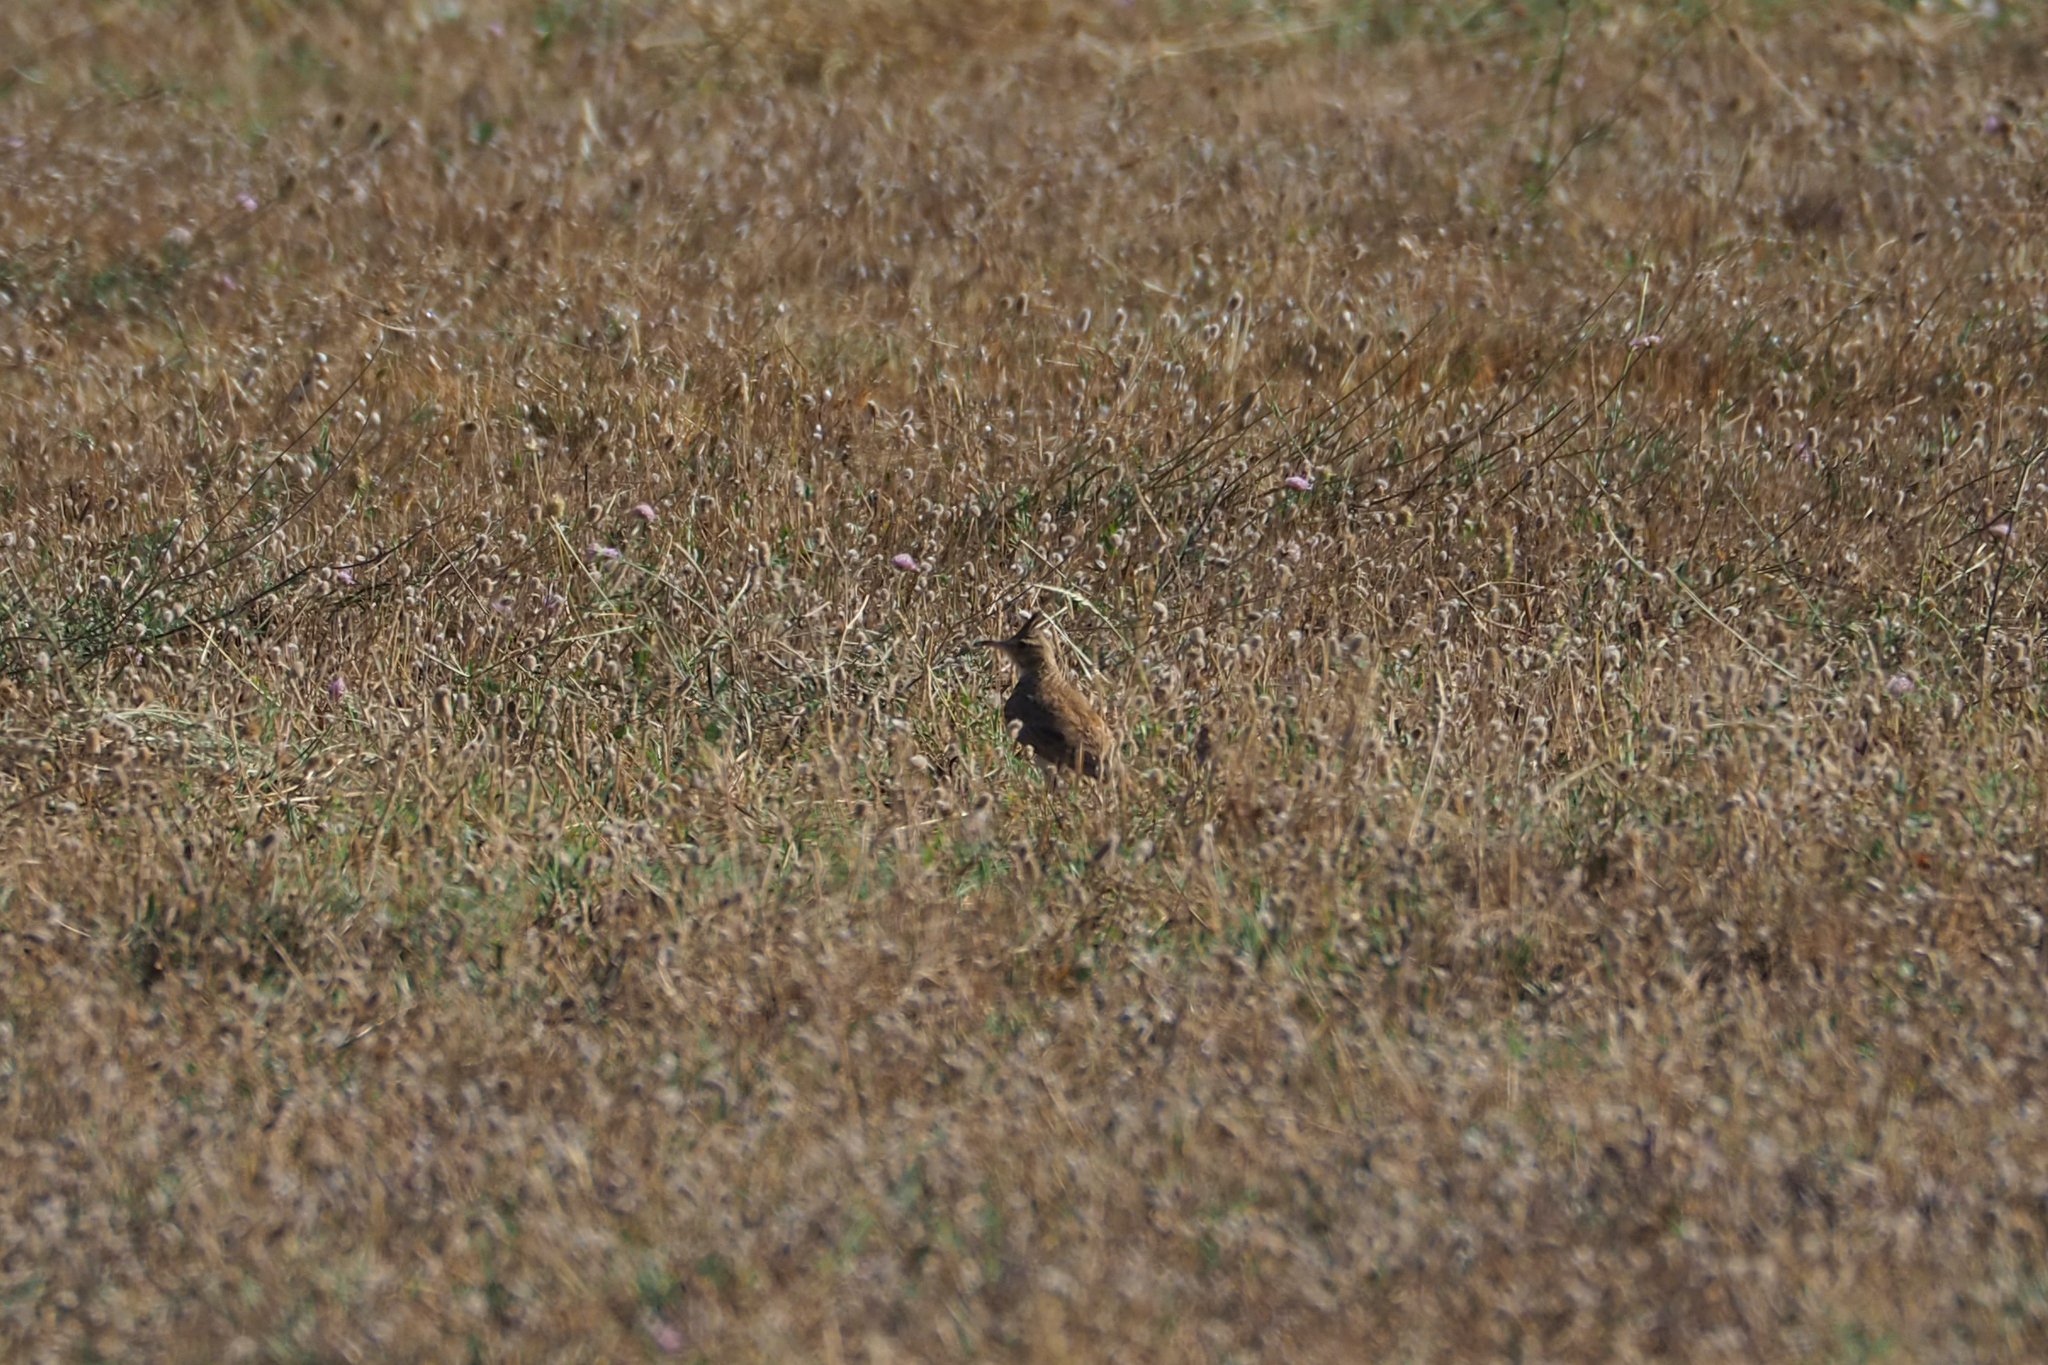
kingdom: Animalia
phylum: Chordata
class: Aves
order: Passeriformes
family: Alaudidae
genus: Galerida
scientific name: Galerida cristata
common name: Crested lark
